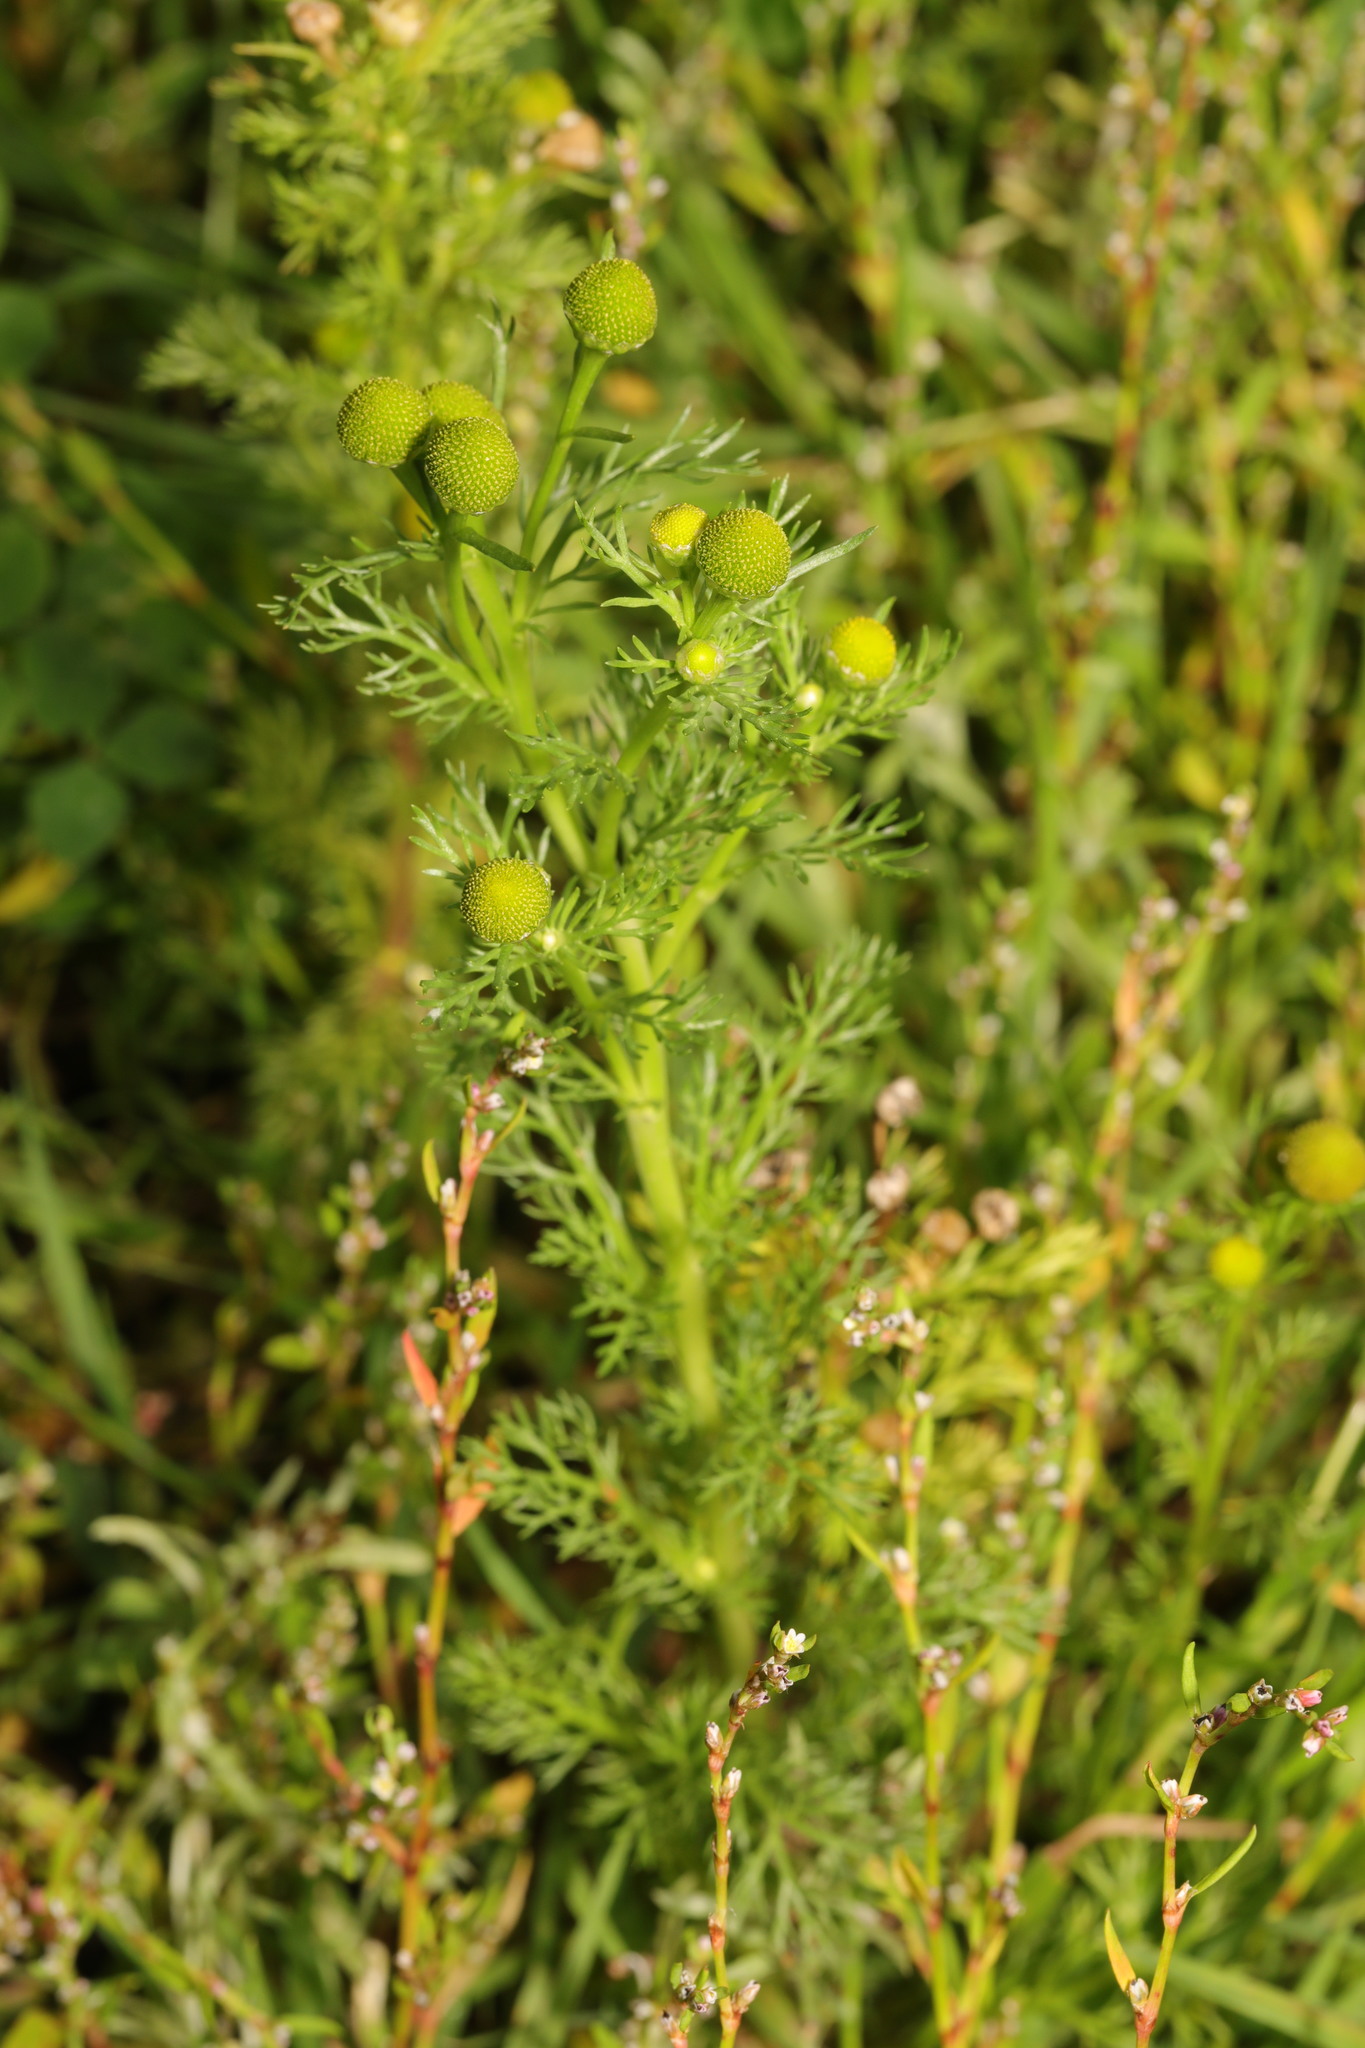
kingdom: Plantae
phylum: Tracheophyta
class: Magnoliopsida
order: Asterales
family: Asteraceae
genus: Matricaria
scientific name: Matricaria discoidea
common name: Disc mayweed
